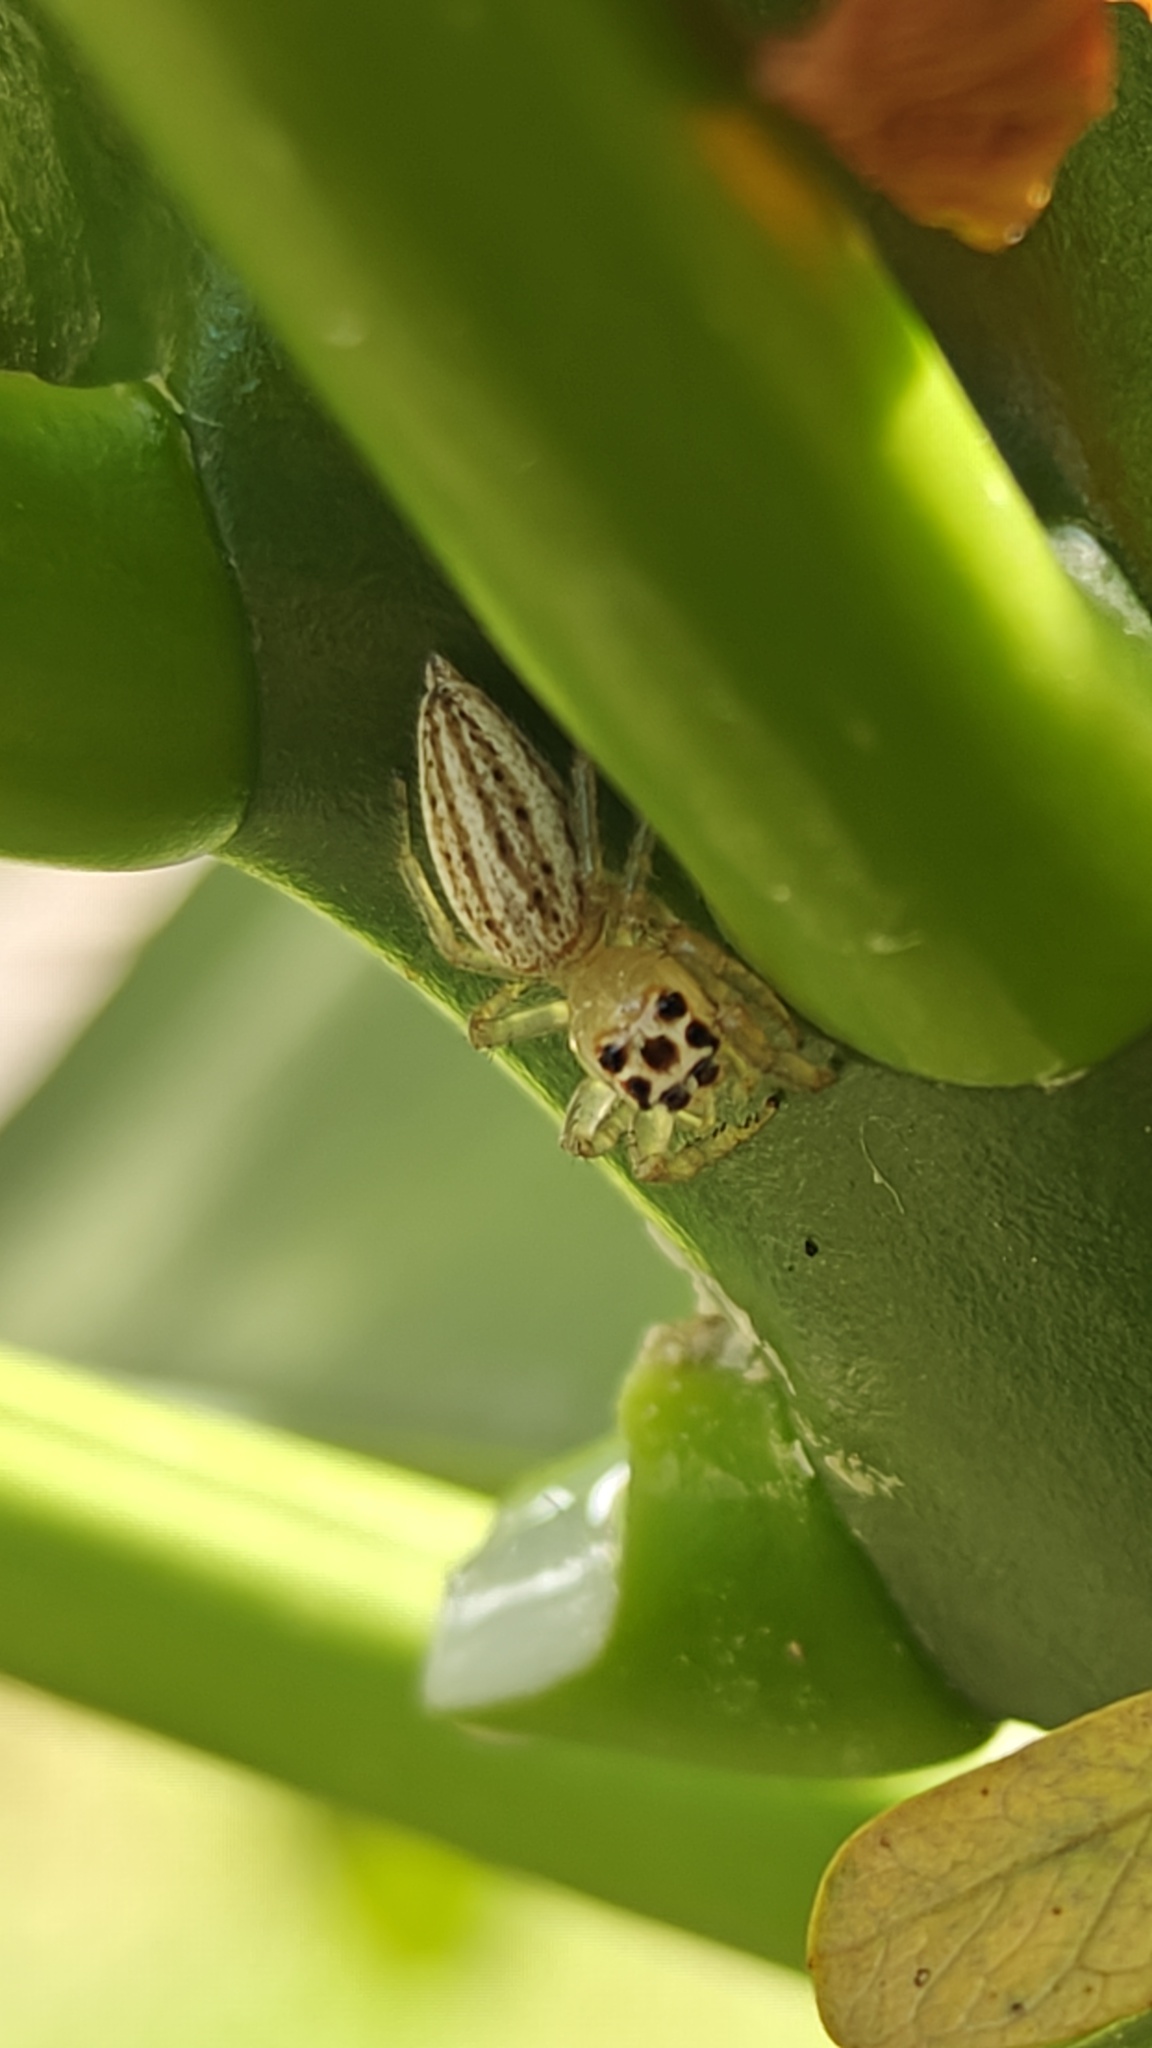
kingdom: Animalia
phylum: Arthropoda
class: Arachnida
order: Araneae
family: Salticidae
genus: Colonus
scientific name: Colonus sylvanus
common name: Jumping spiders
